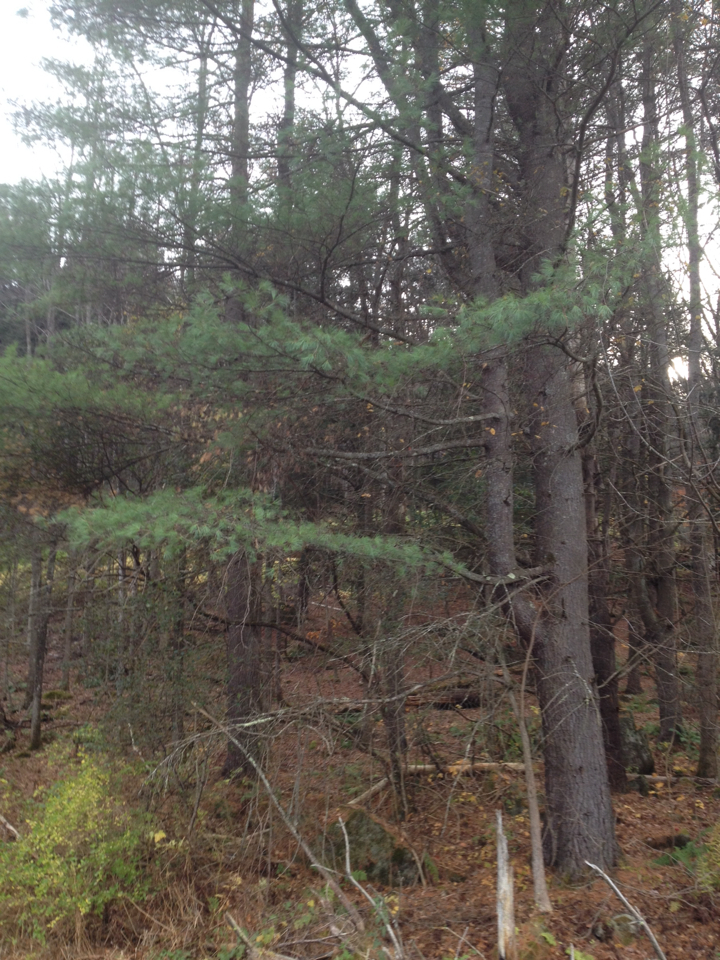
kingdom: Plantae
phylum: Tracheophyta
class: Pinopsida
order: Pinales
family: Pinaceae
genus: Pinus
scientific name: Pinus strobus
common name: Weymouth pine
